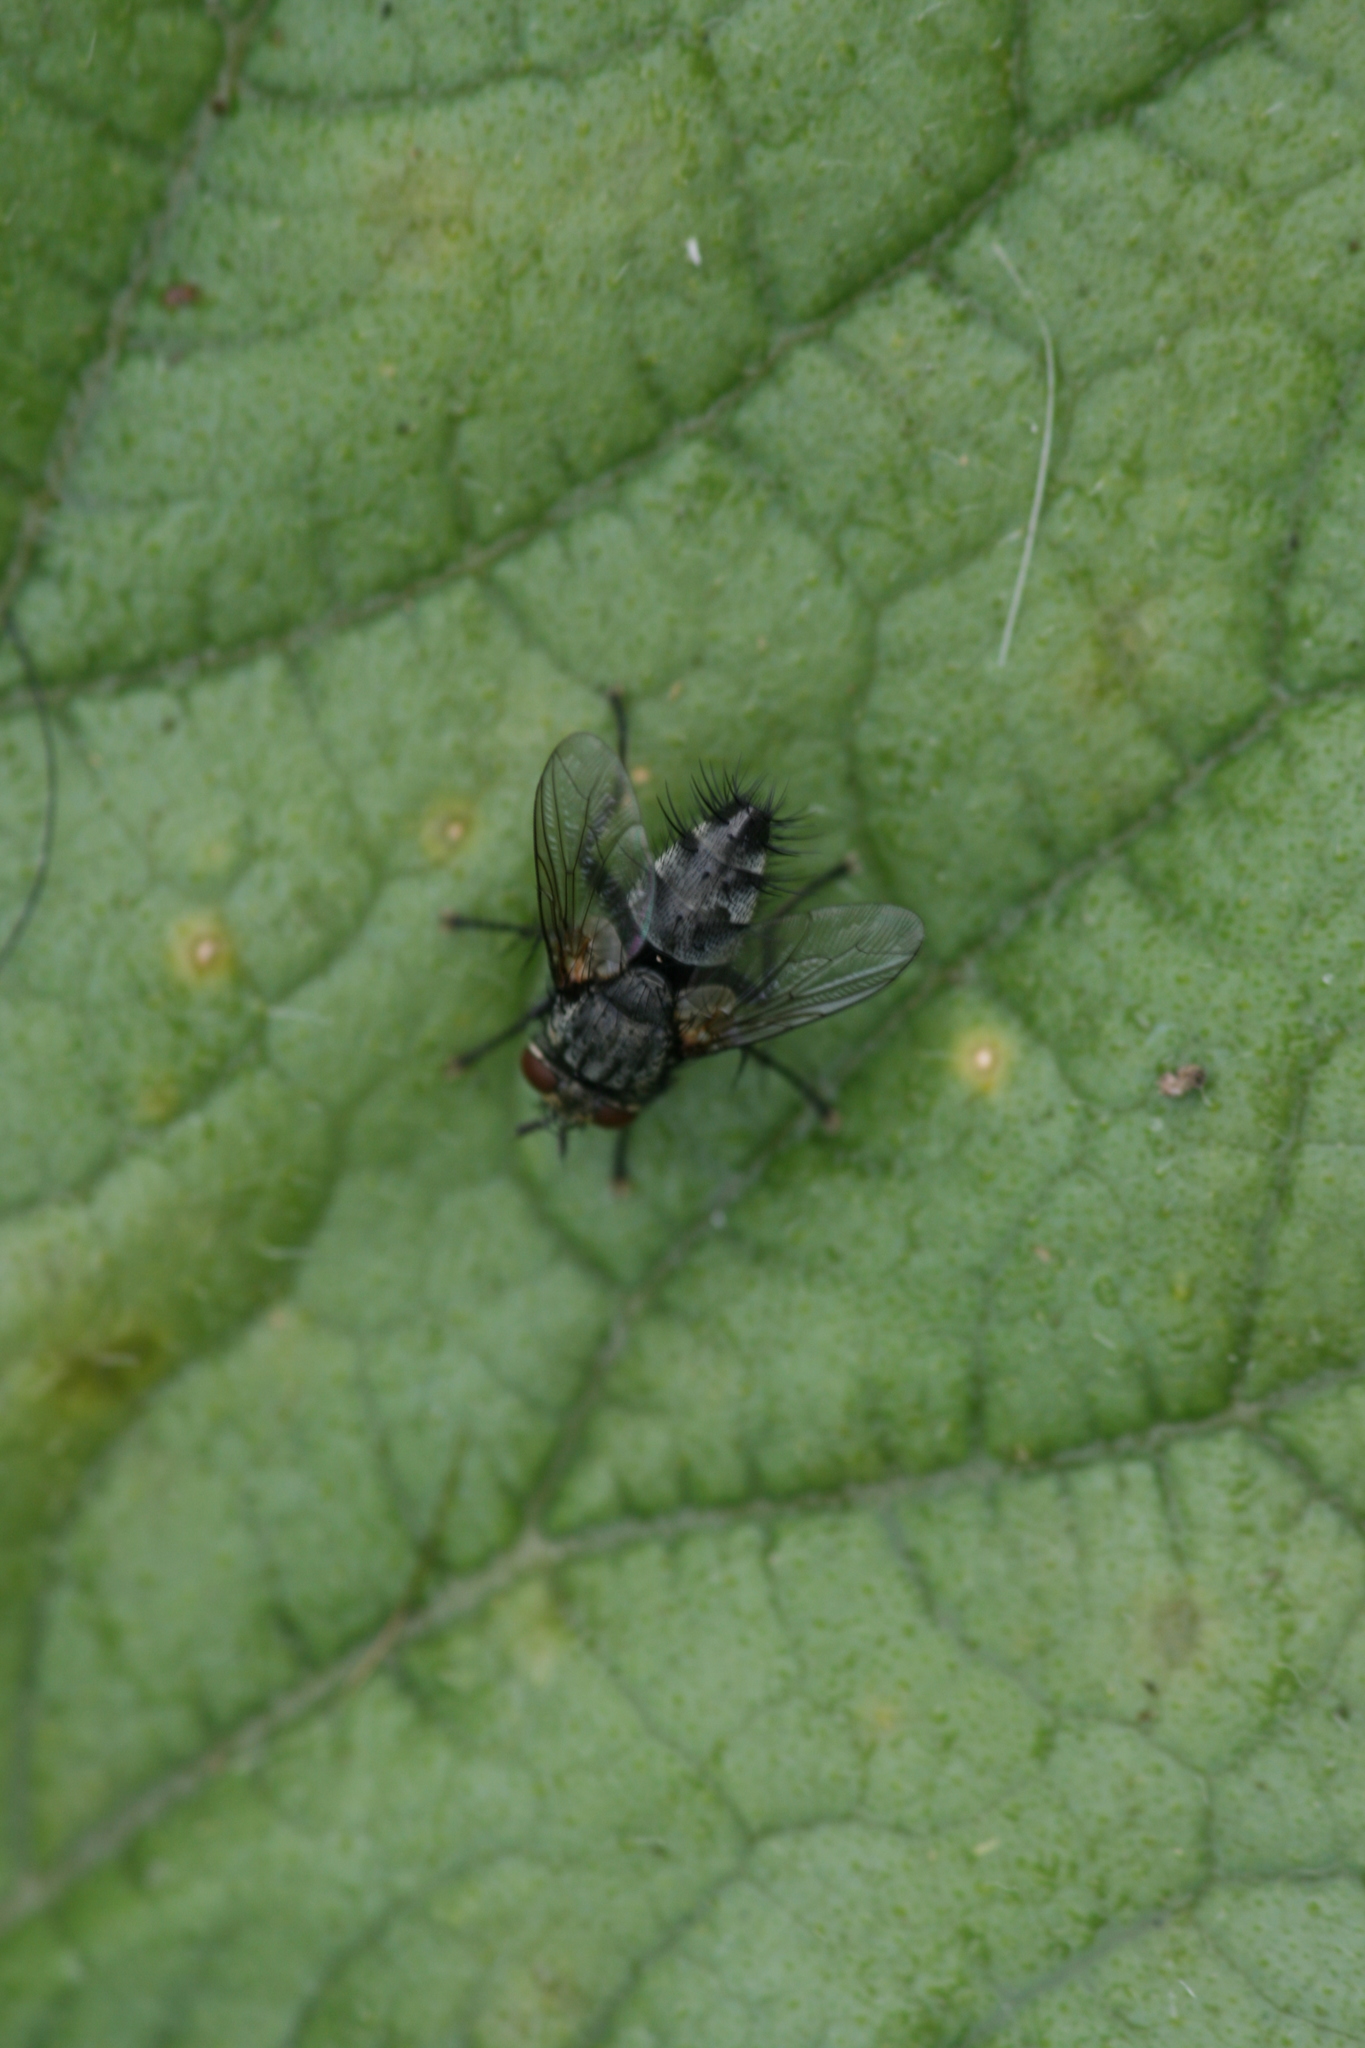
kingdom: Animalia
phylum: Arthropoda
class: Insecta
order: Diptera
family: Tachinidae
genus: Voria
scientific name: Voria ruralis
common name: Parasitic fly
